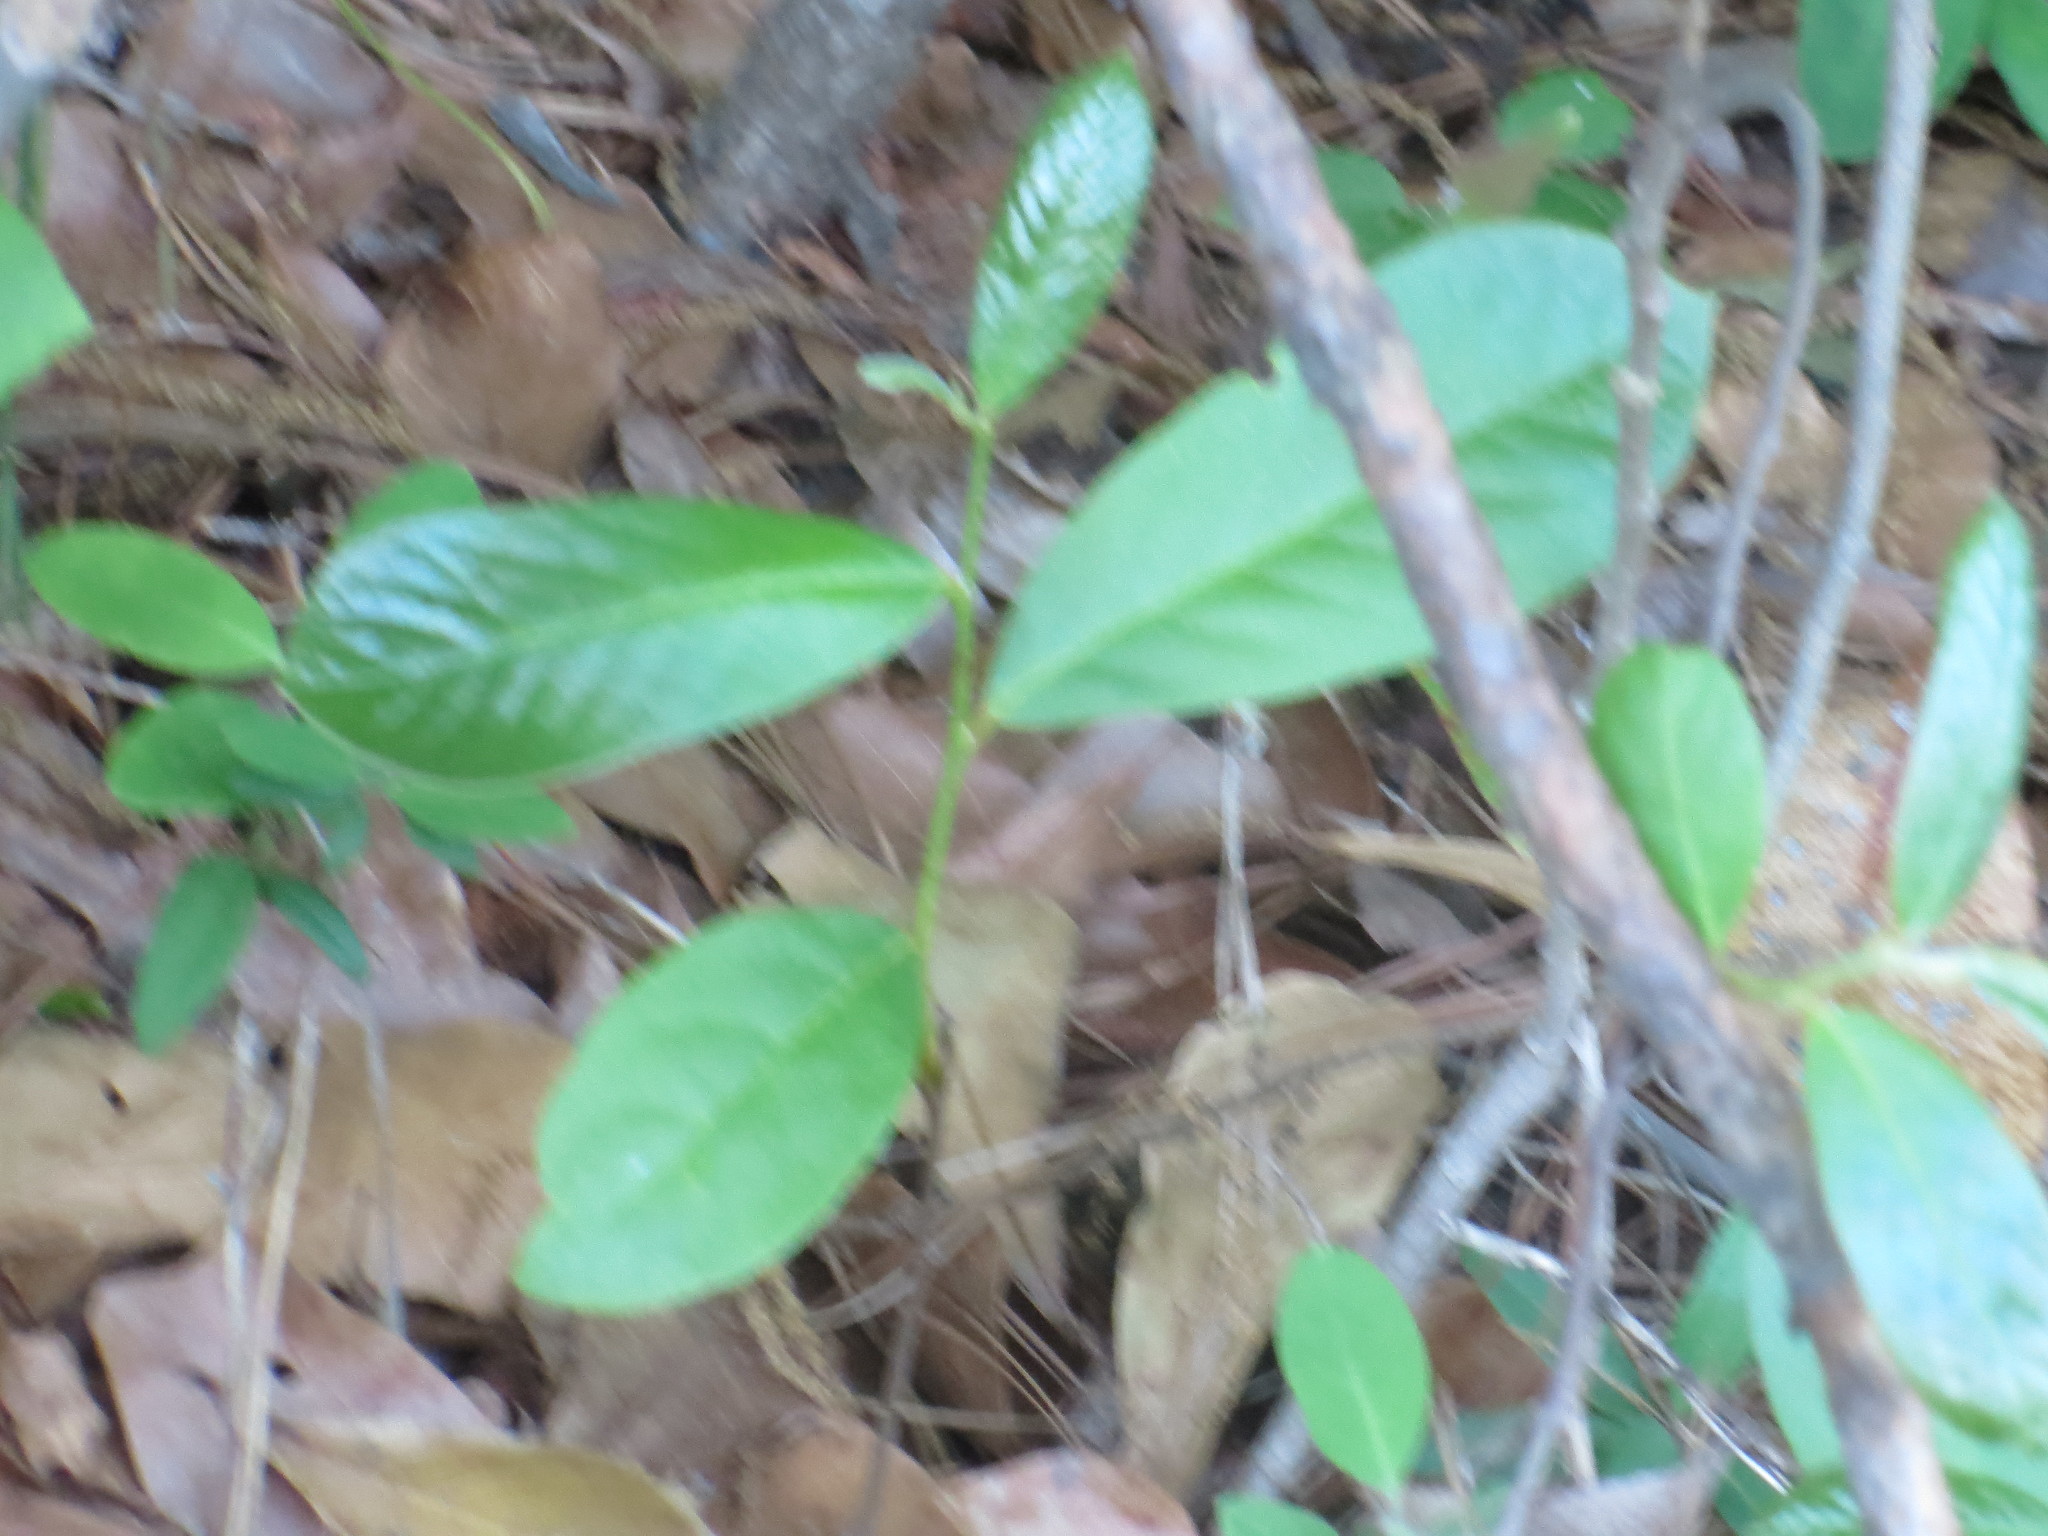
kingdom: Plantae
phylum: Tracheophyta
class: Magnoliopsida
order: Magnoliales
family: Annonaceae
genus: Asimina
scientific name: Asimina parviflora
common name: Dwarf pawpaw
